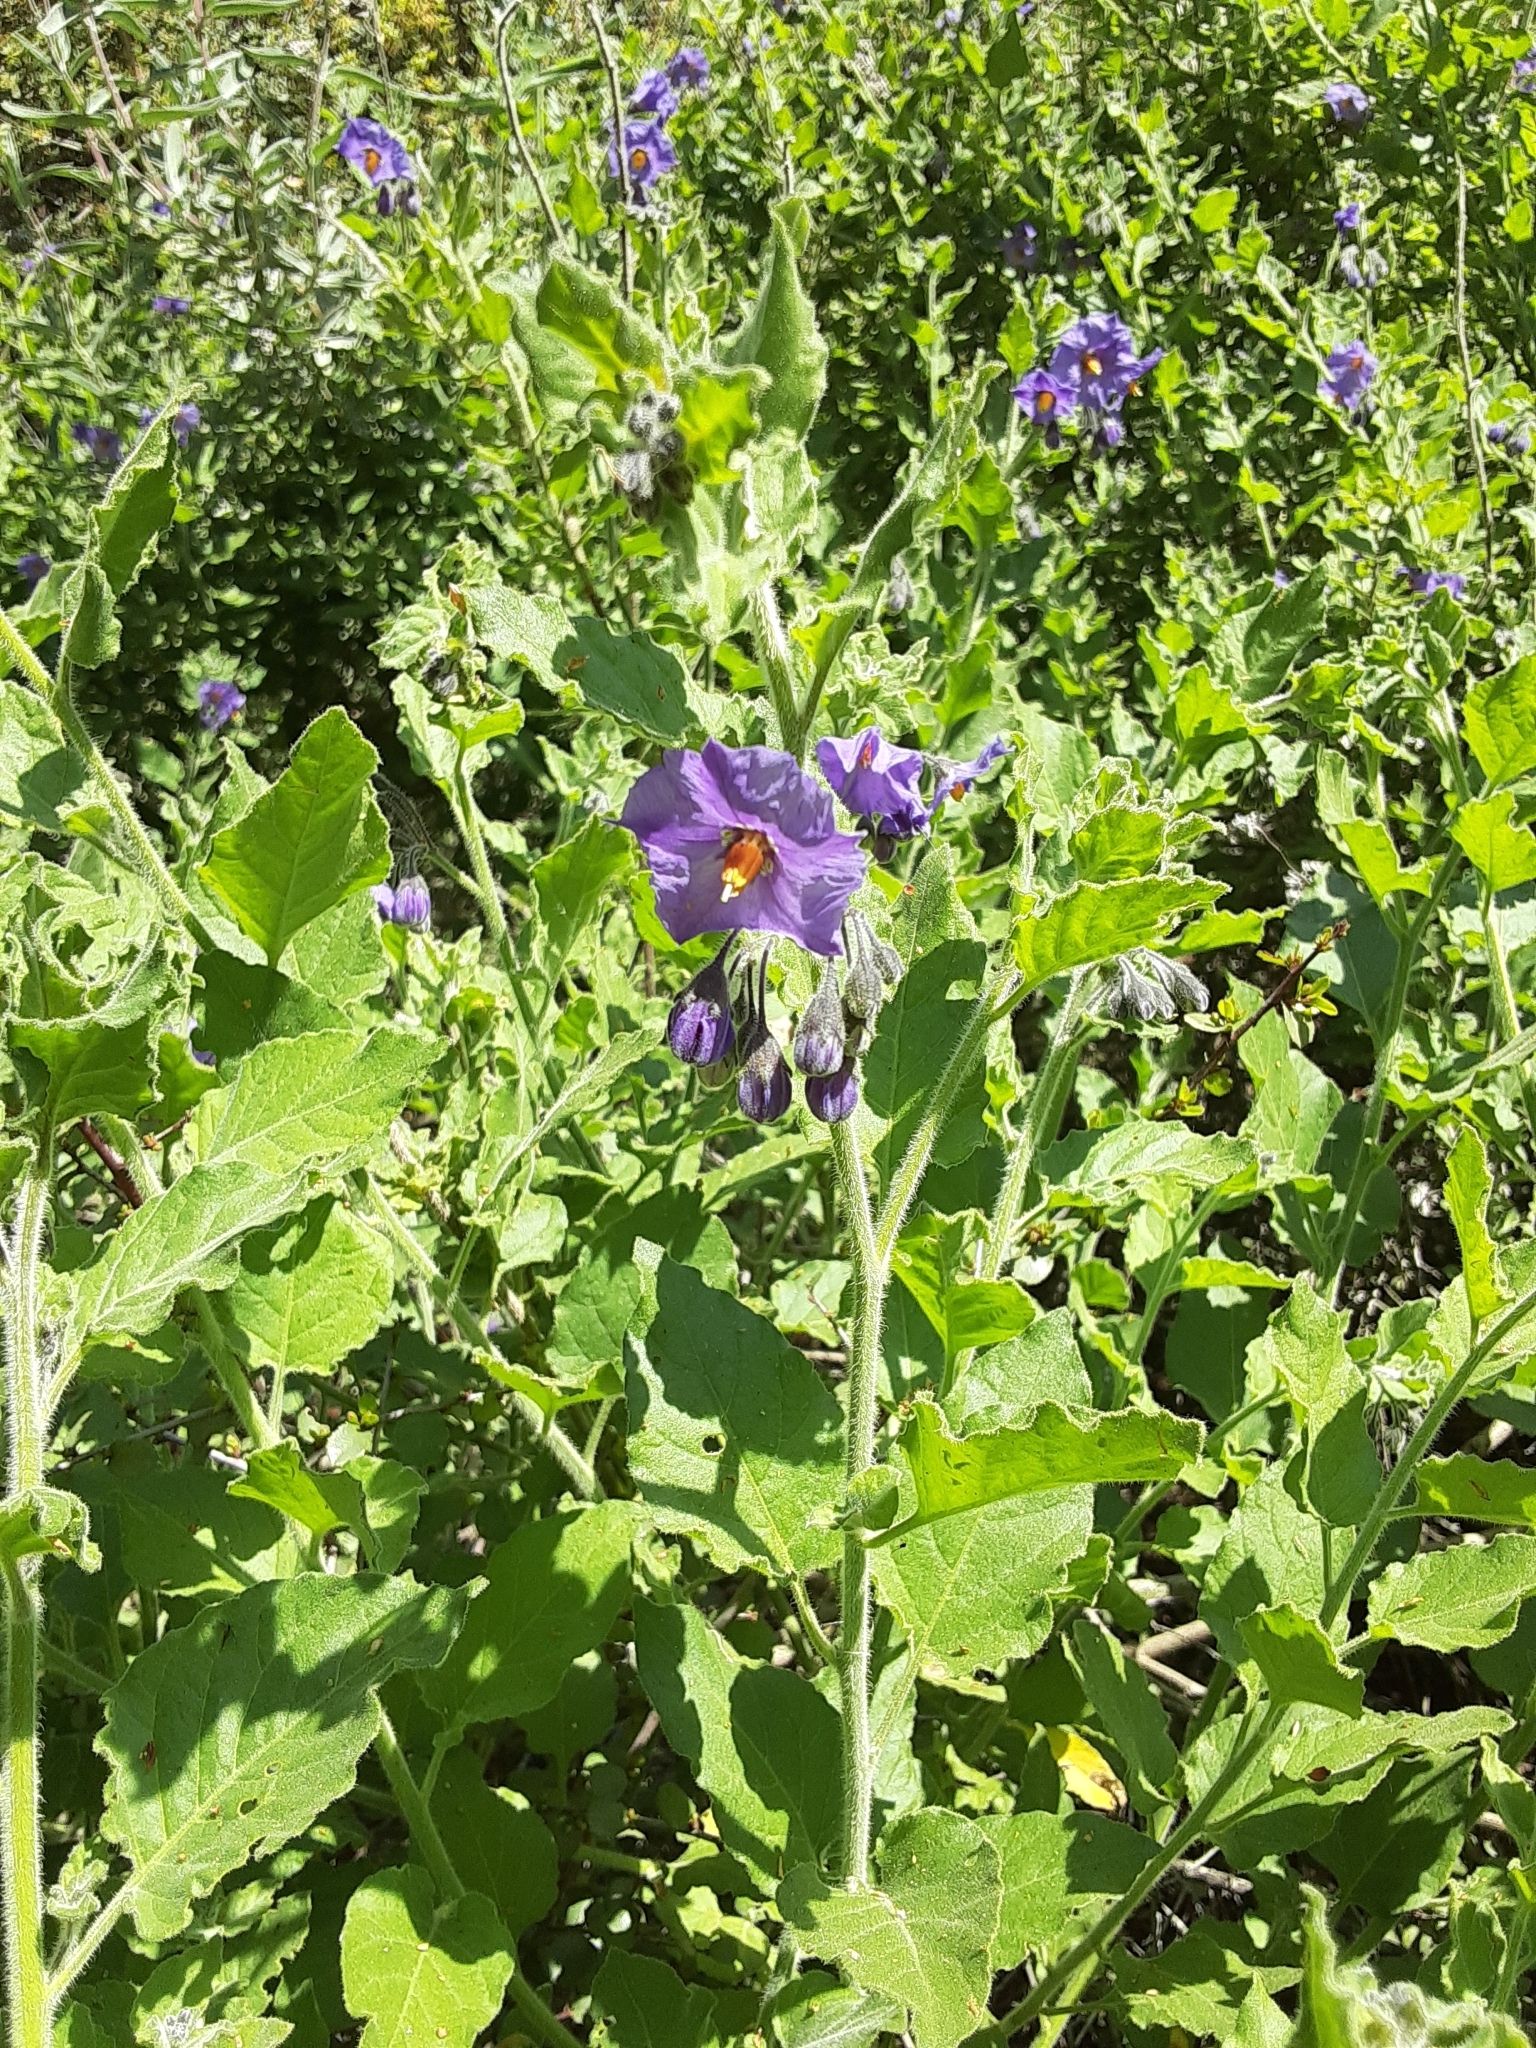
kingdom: Plantae
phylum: Tracheophyta
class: Magnoliopsida
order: Solanales
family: Solanaceae
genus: Solanum
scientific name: Solanum umbelliferum
